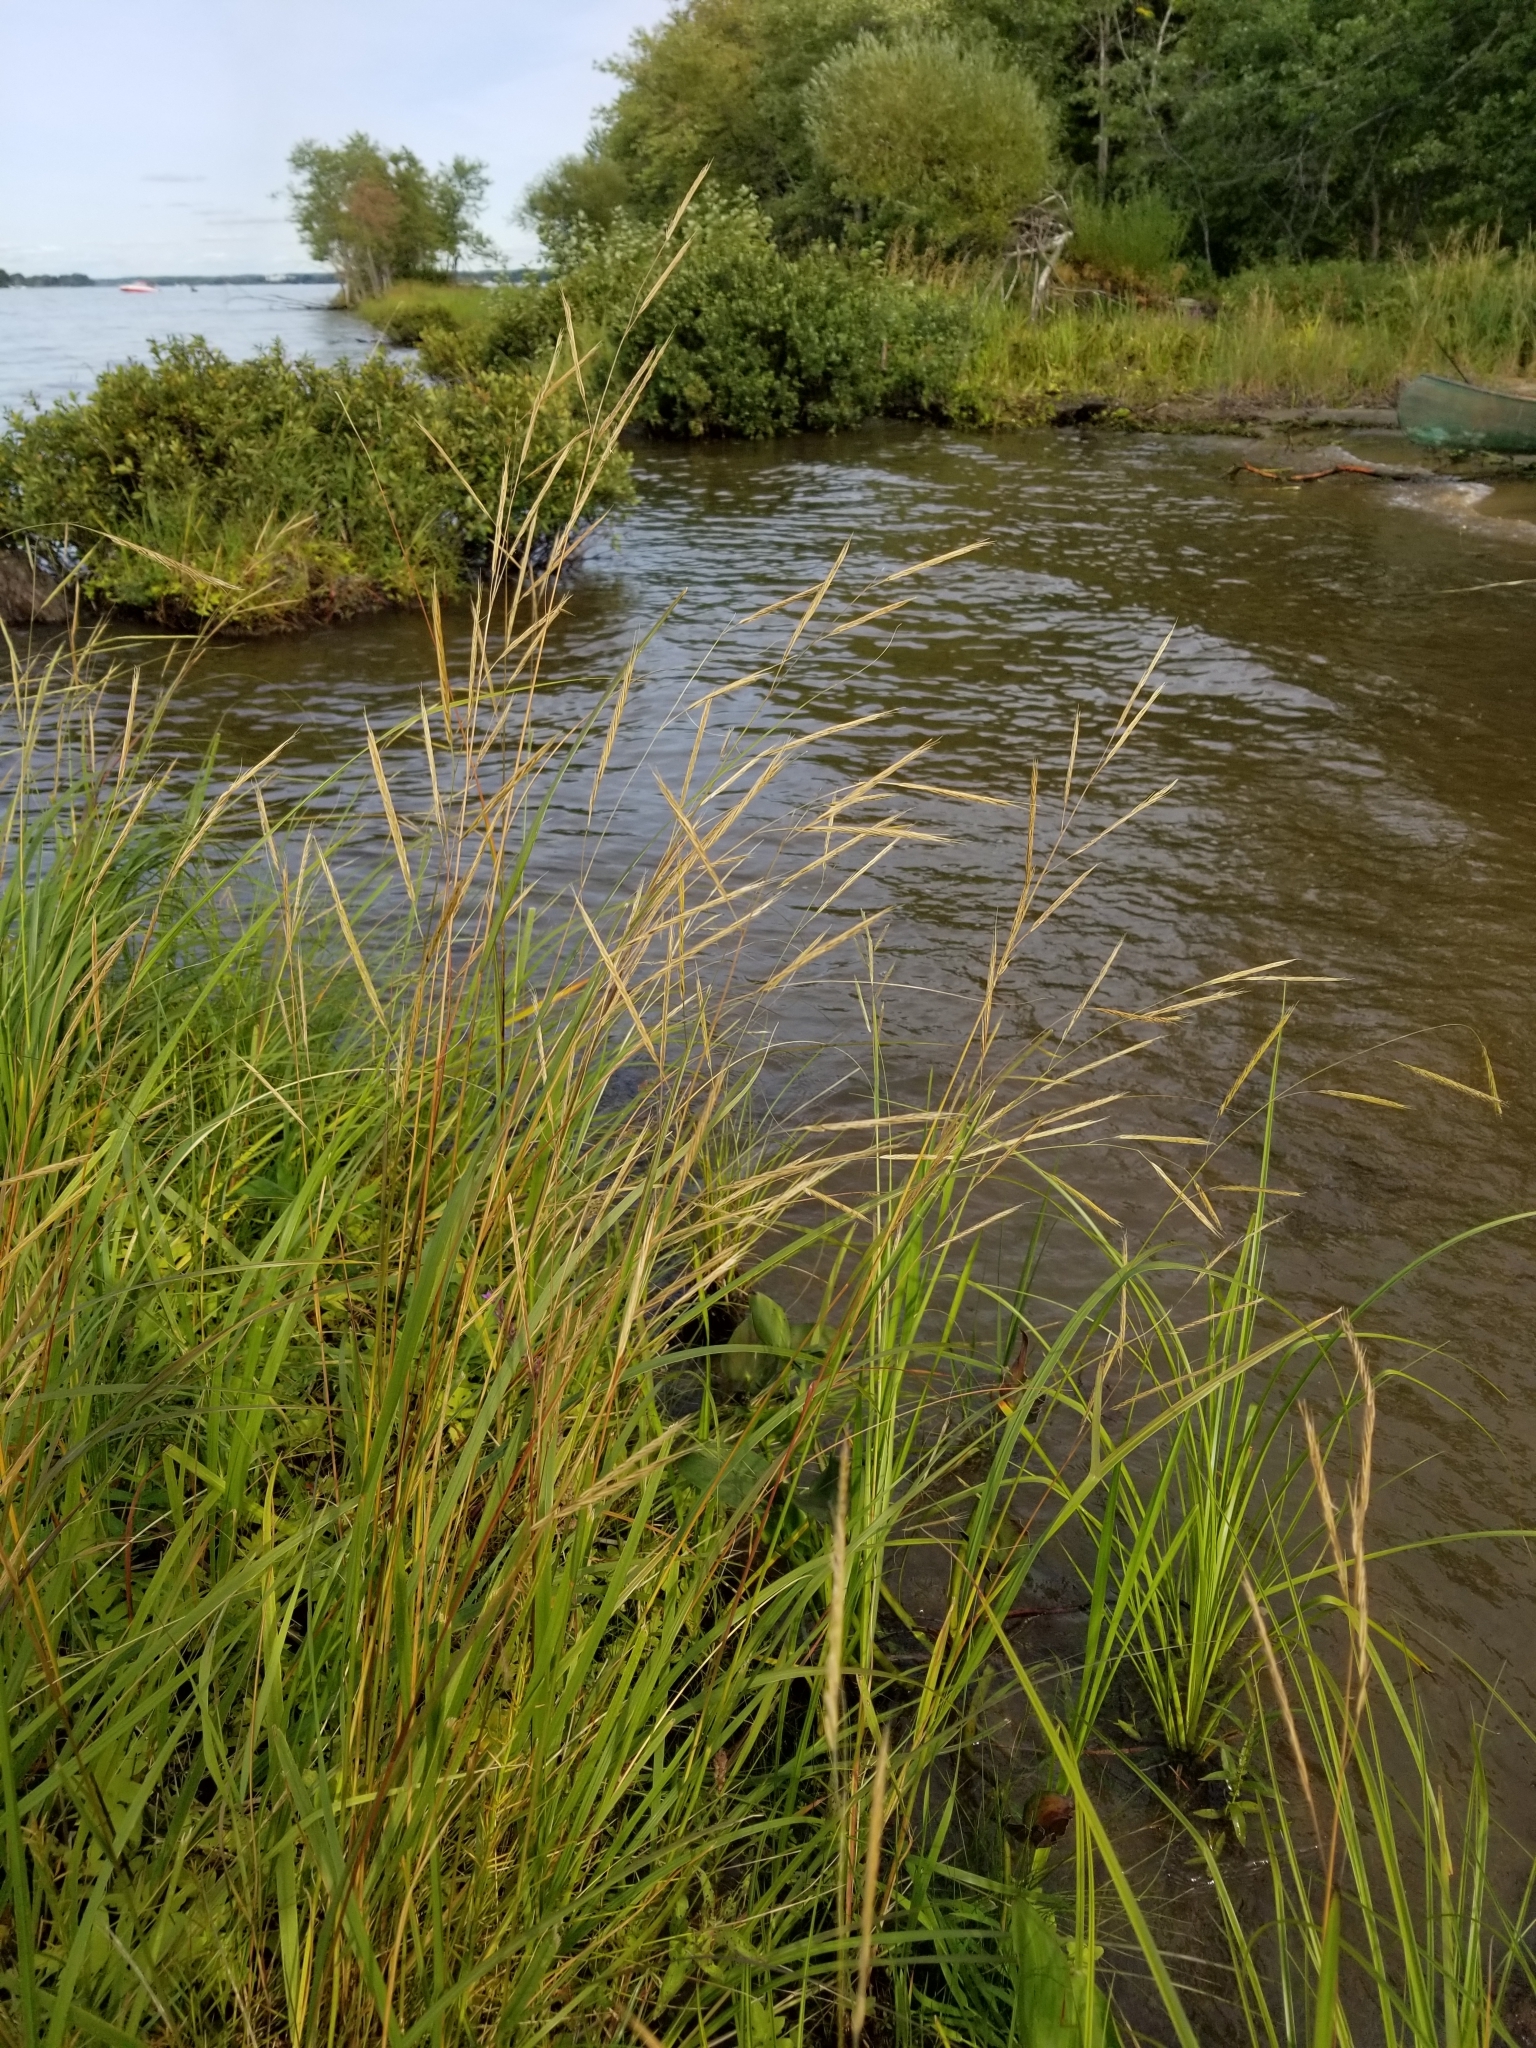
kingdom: Plantae
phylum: Tracheophyta
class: Liliopsida
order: Poales
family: Poaceae
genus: Sporobolus
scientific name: Sporobolus michauxianus
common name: Freshwater cordgrass
